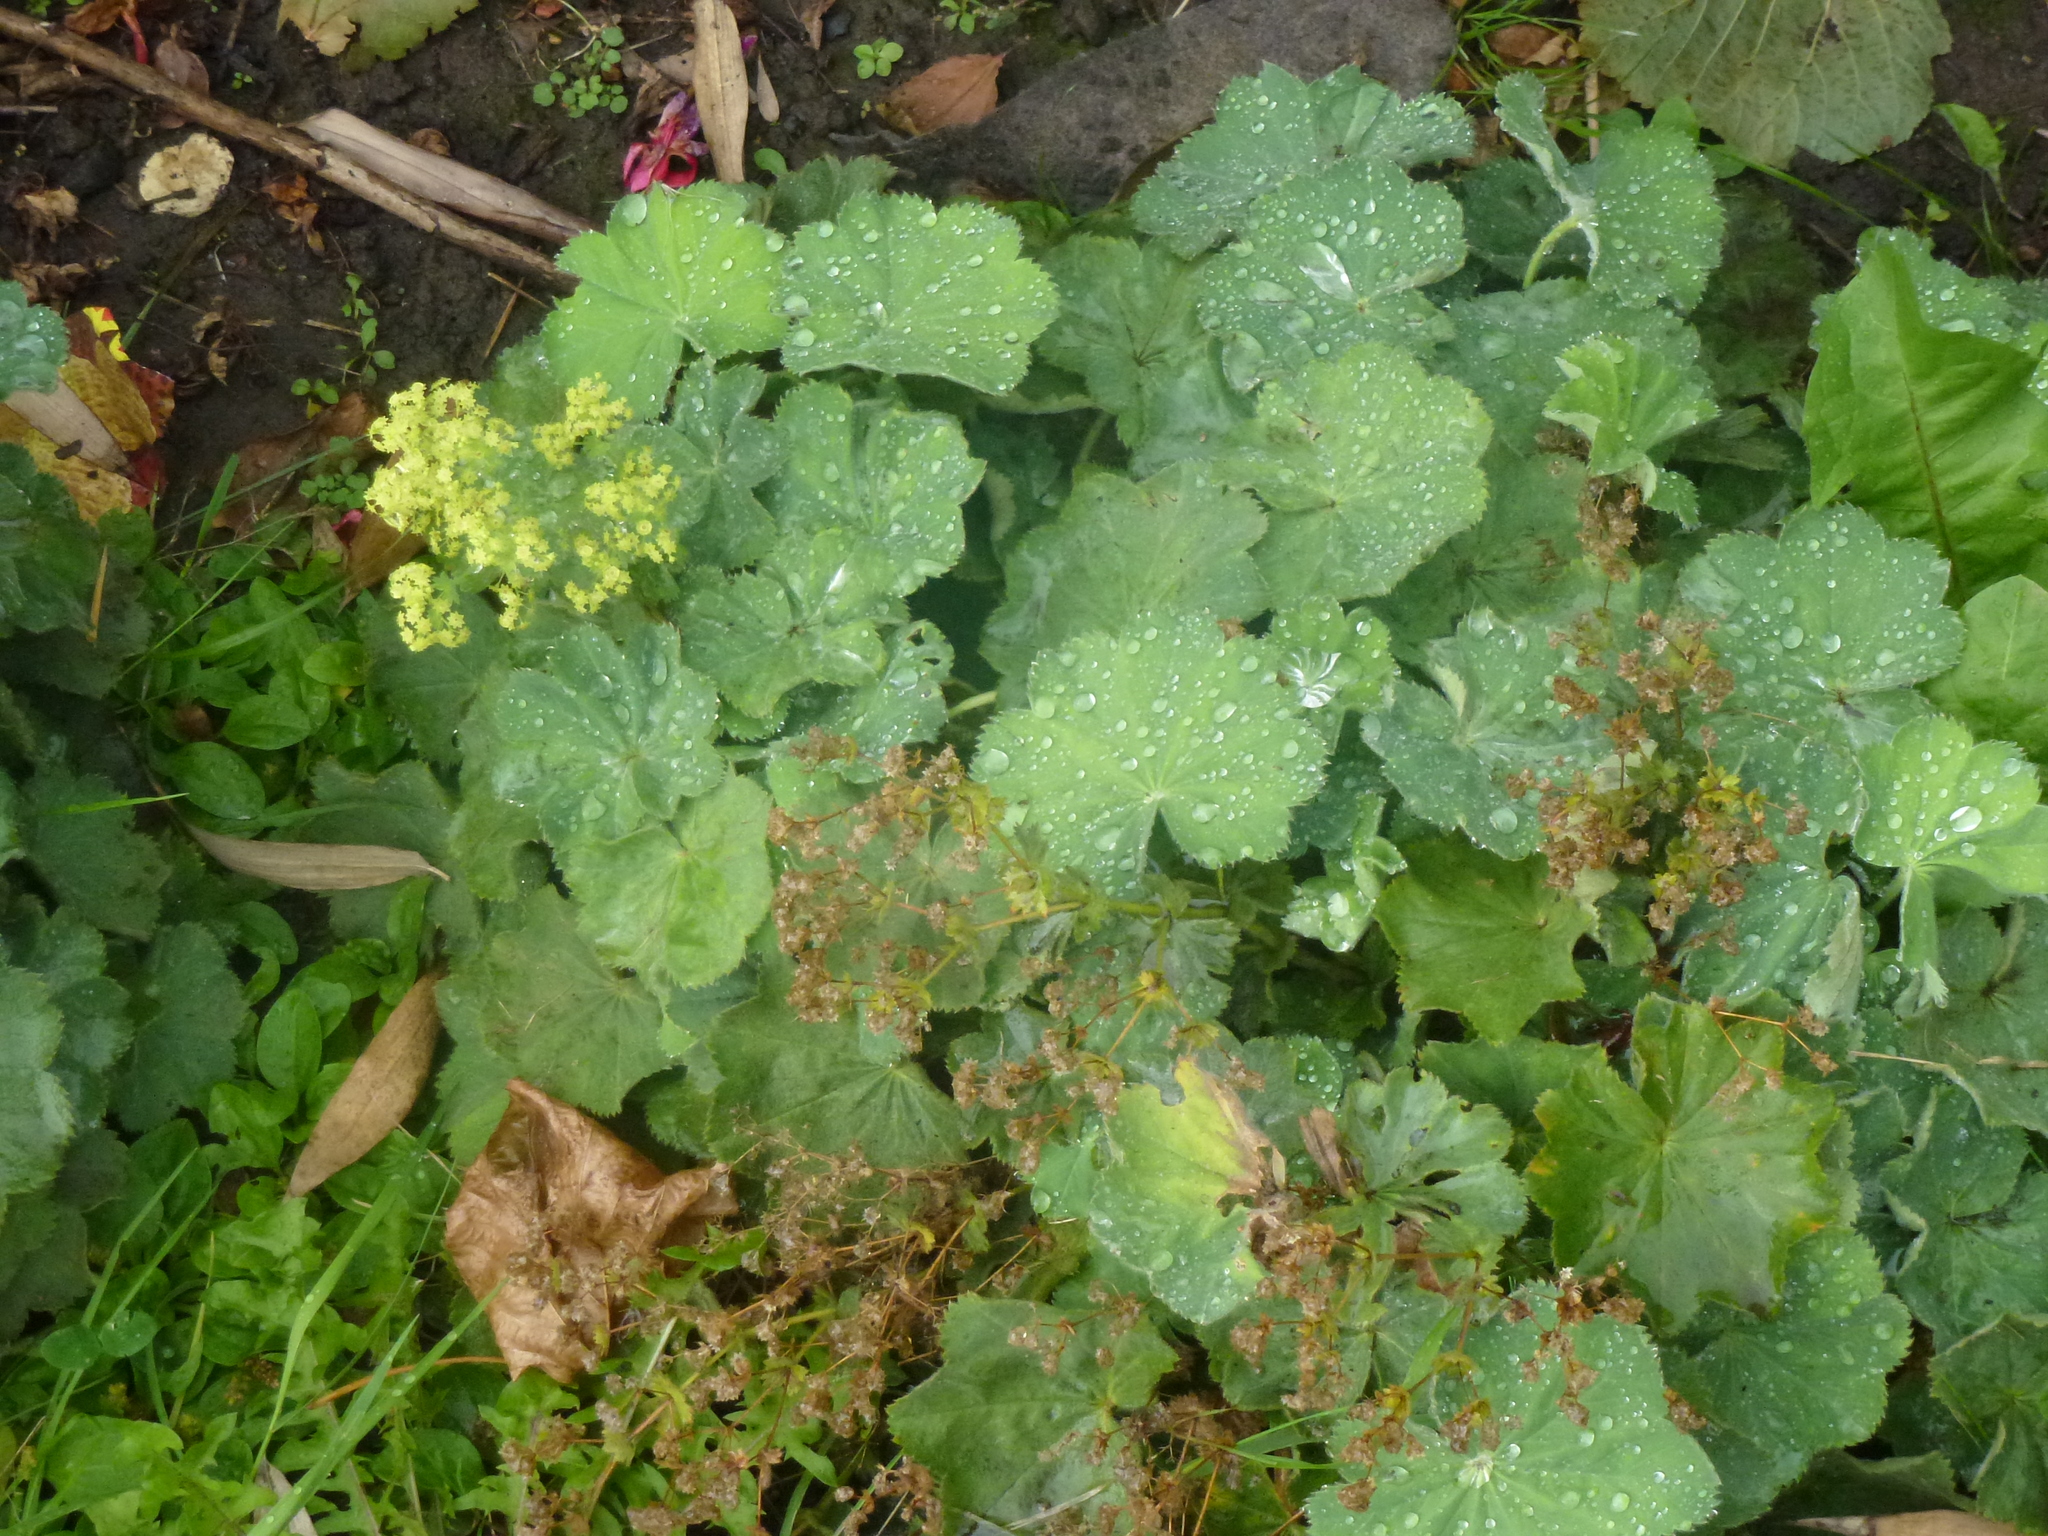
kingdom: Plantae
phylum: Tracheophyta
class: Magnoliopsida
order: Rosales
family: Rosaceae
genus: Alchemilla
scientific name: Alchemilla mollis
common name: Lady's-mantle
